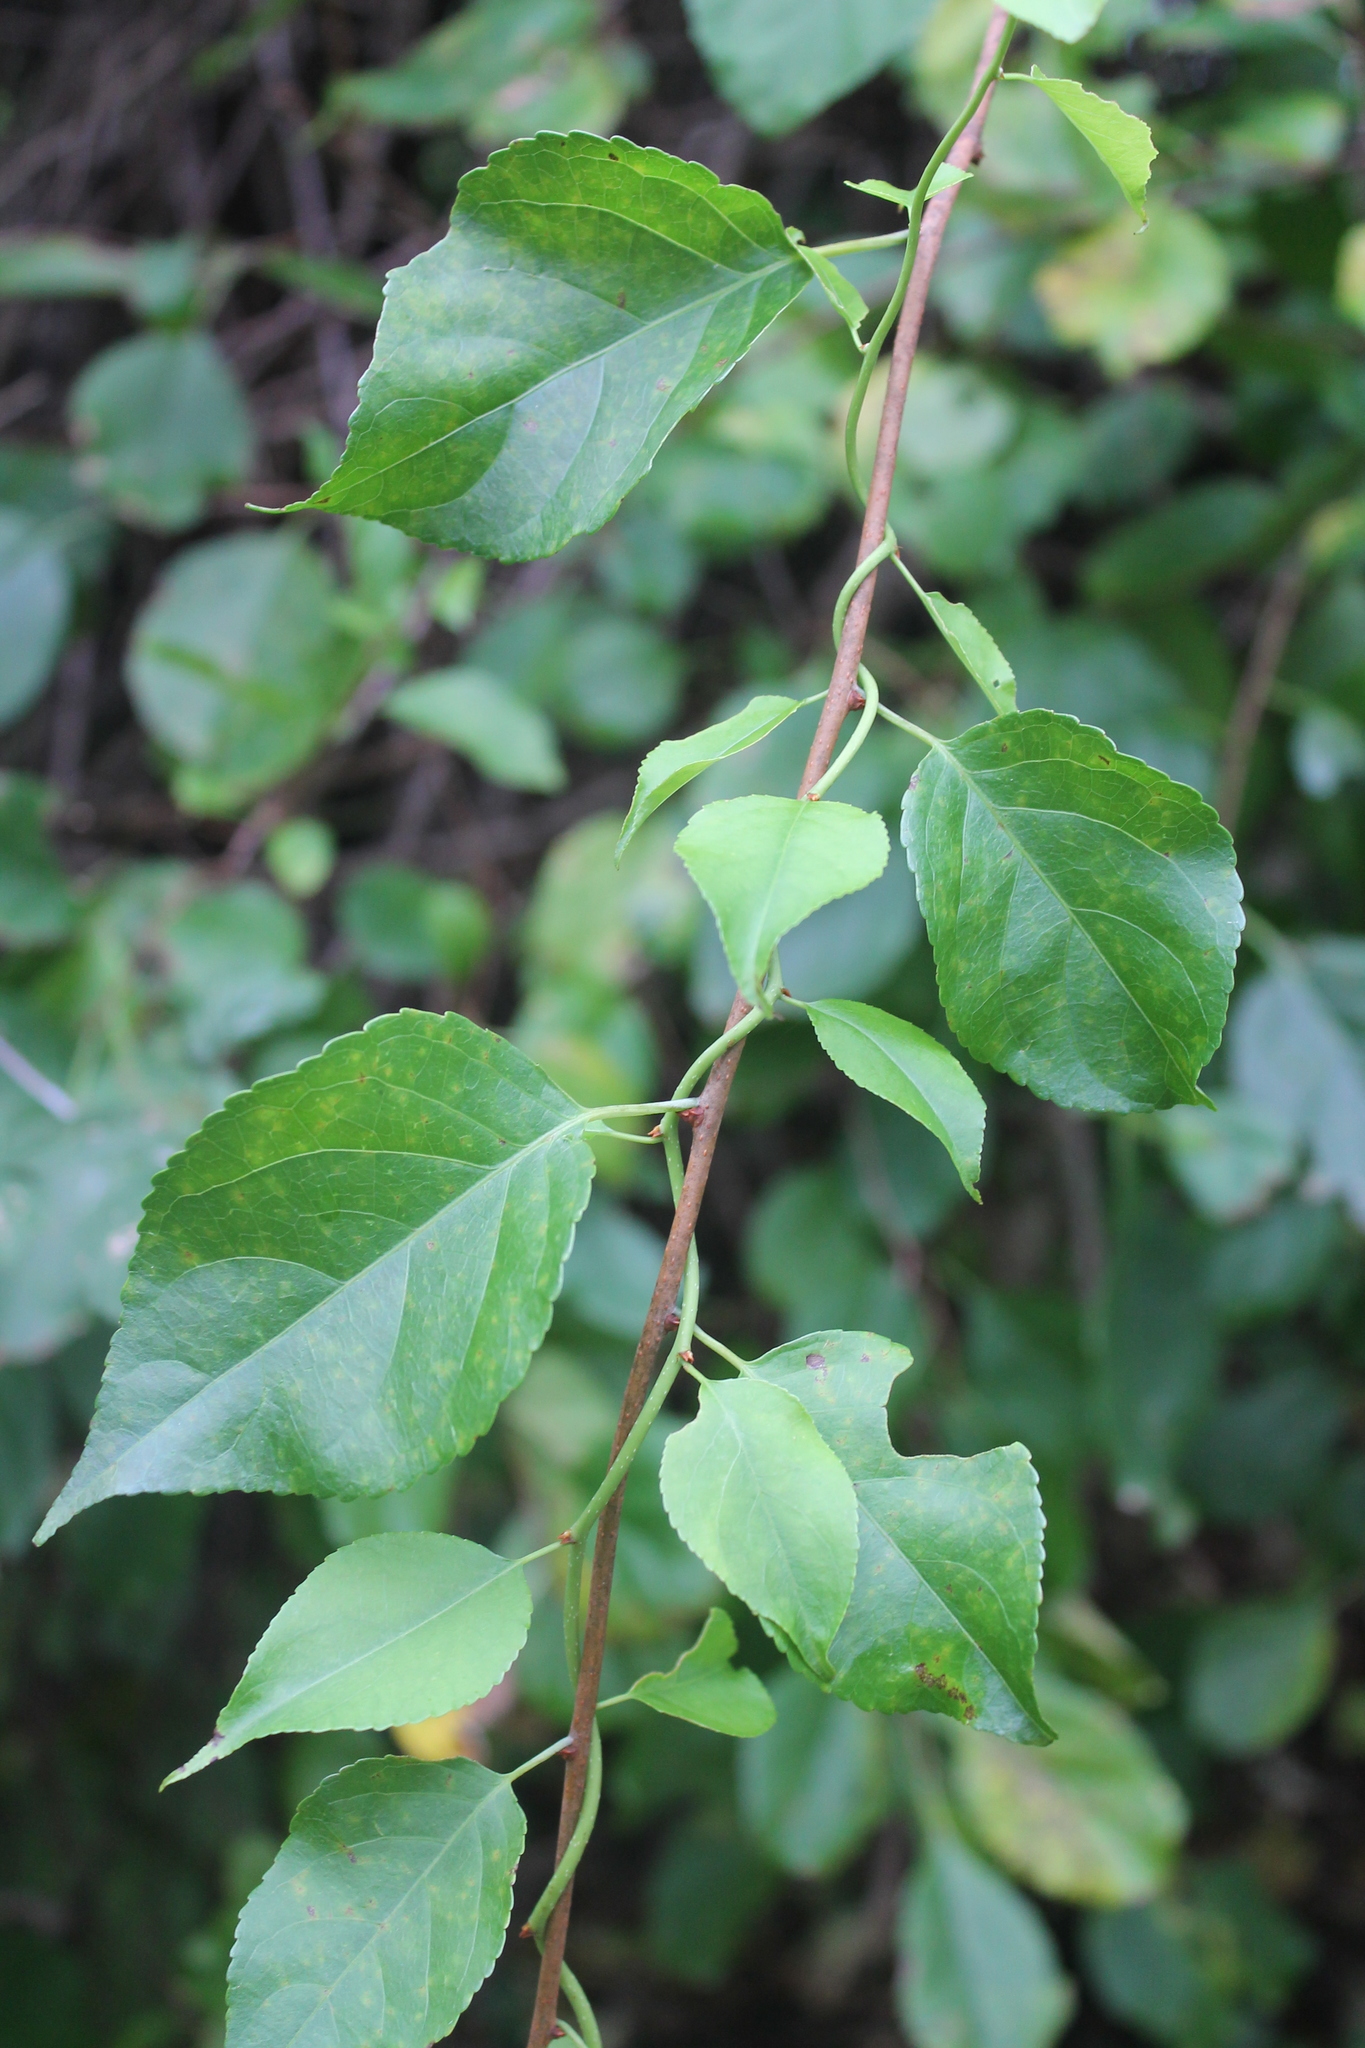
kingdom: Plantae
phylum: Tracheophyta
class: Magnoliopsida
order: Celastrales
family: Celastraceae
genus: Celastrus
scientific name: Celastrus orbiculatus
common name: Oriental bittersweet
